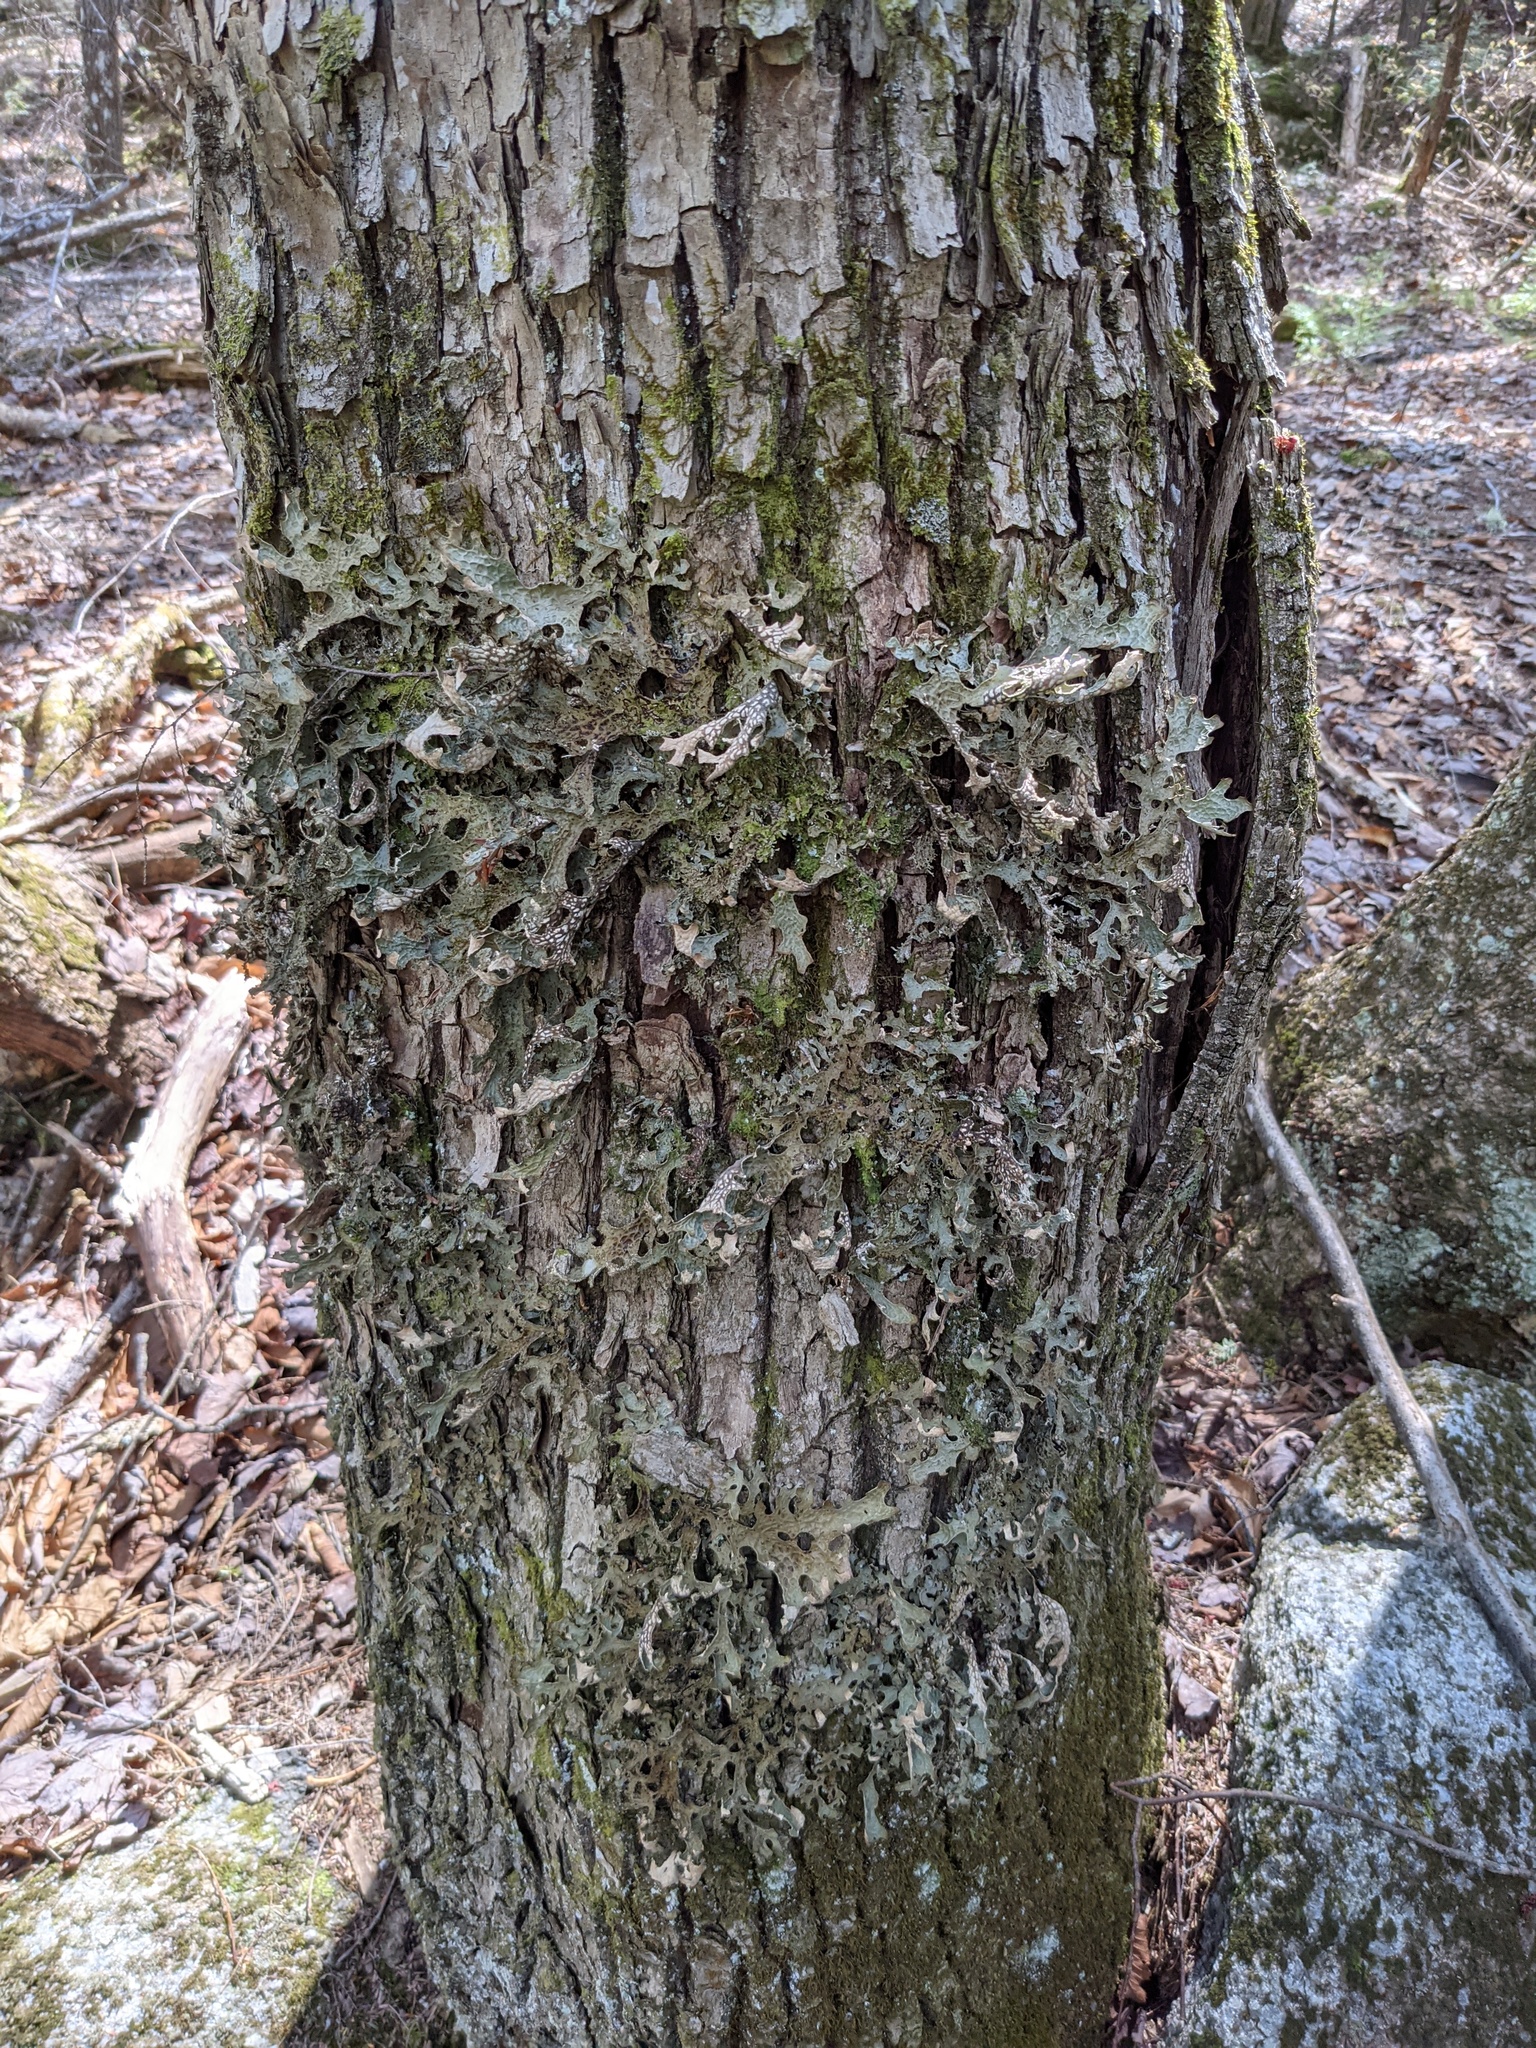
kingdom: Fungi
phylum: Ascomycota
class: Lecanoromycetes
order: Peltigerales
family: Lobariaceae
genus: Lobaria
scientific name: Lobaria pulmonaria
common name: Lungwort
